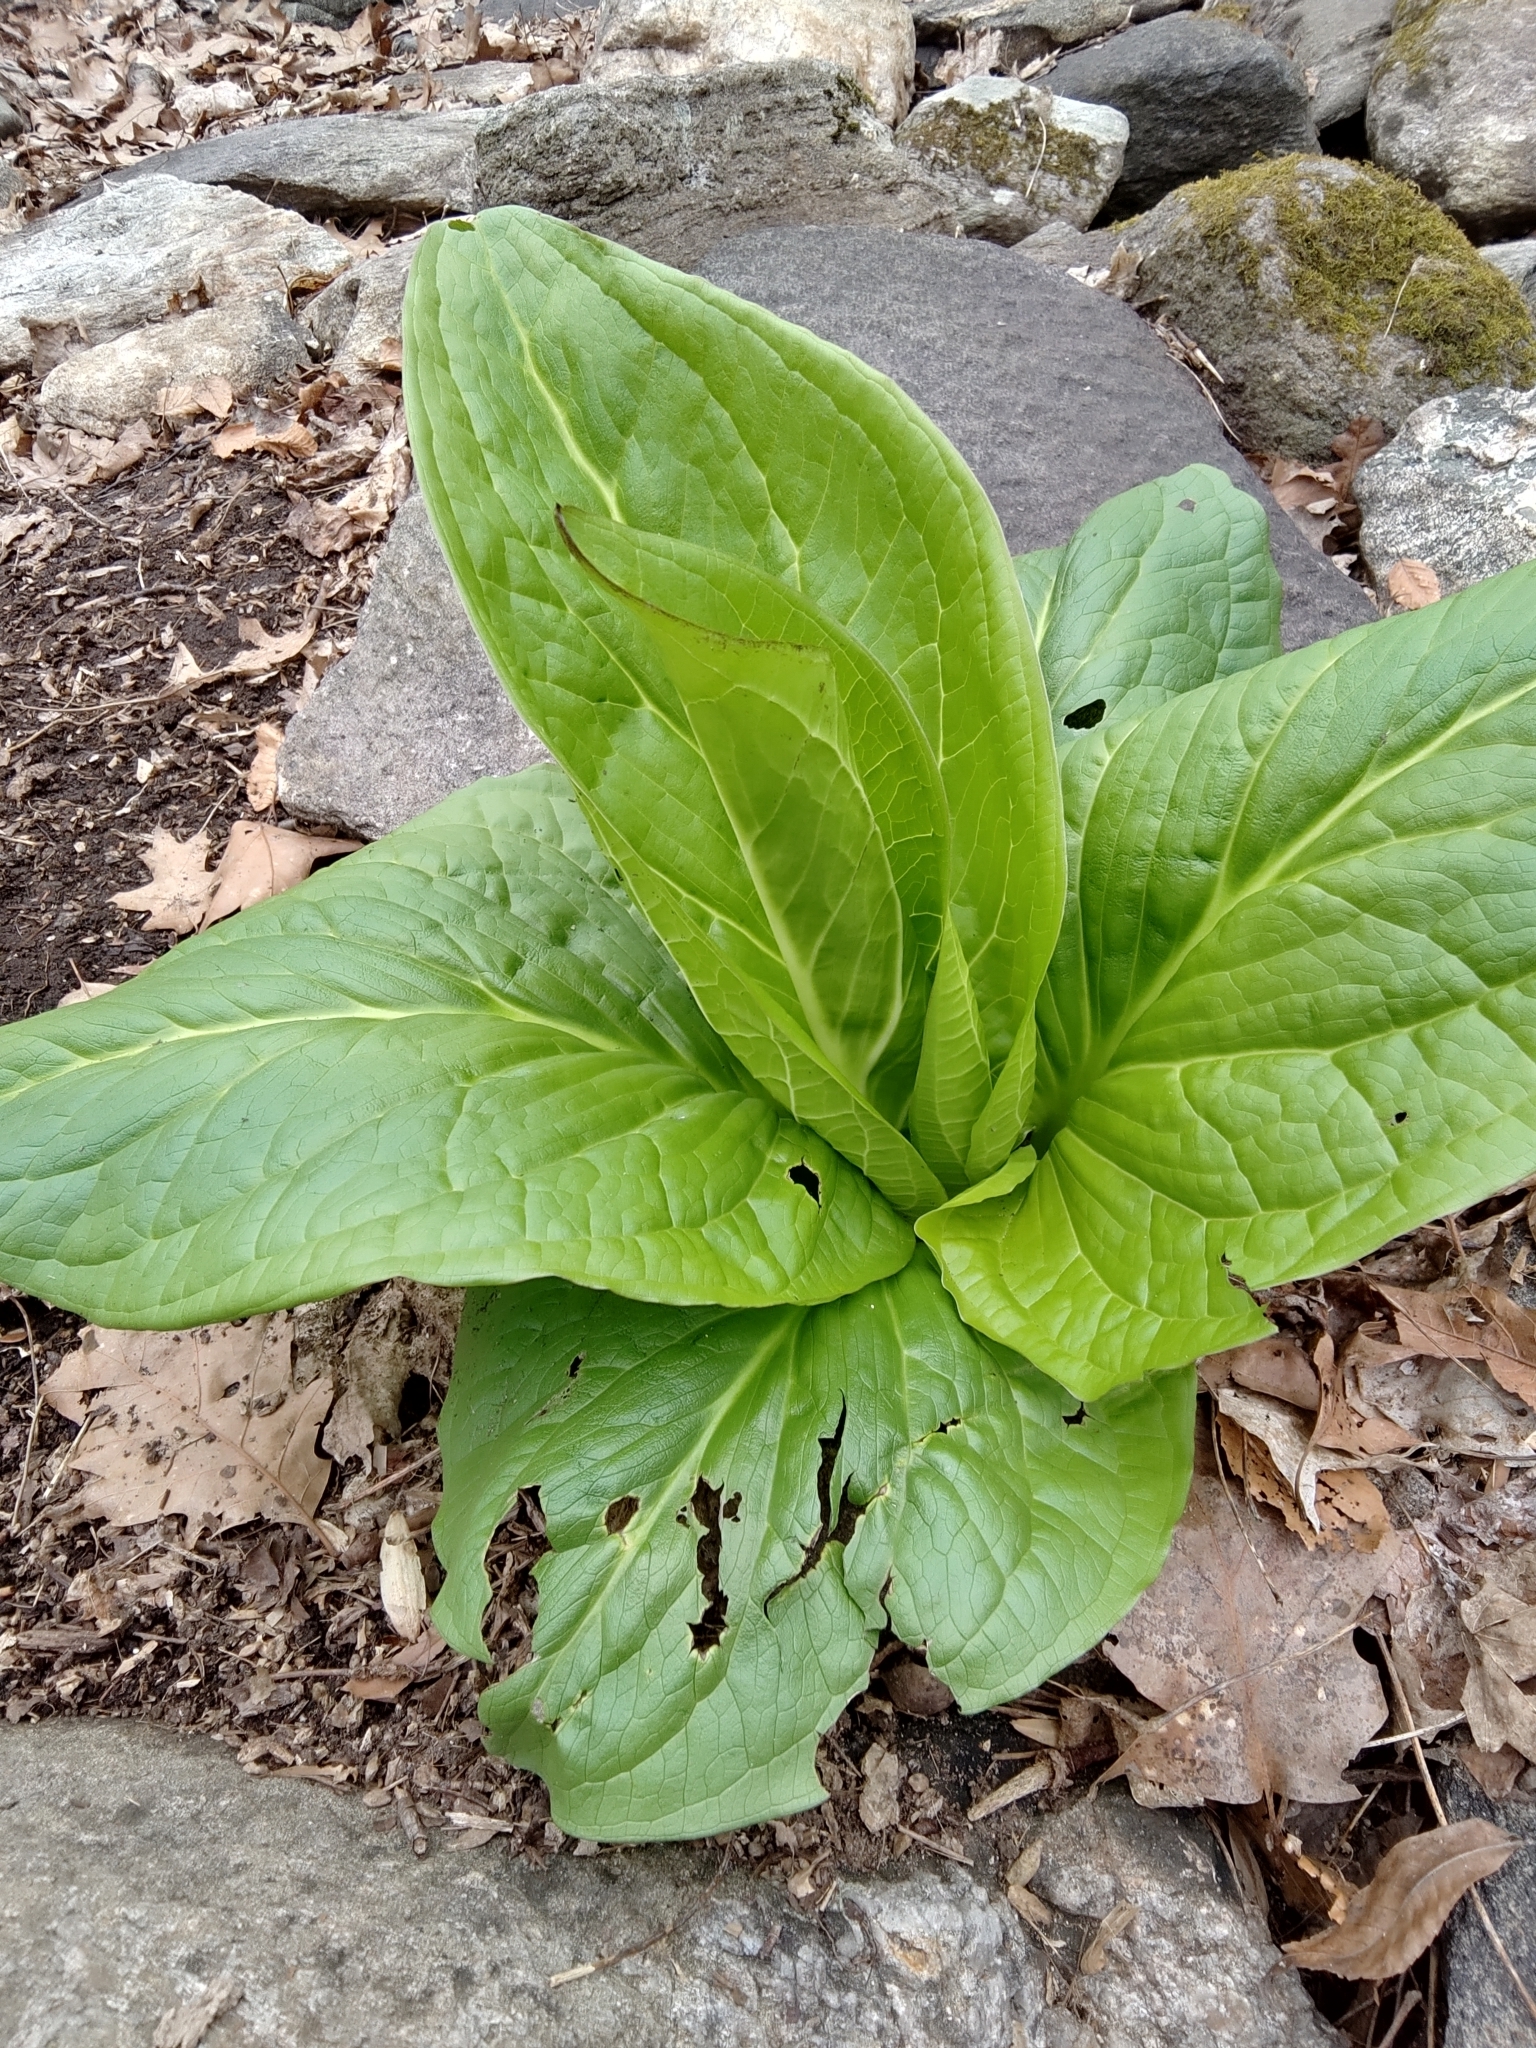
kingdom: Plantae
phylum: Tracheophyta
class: Liliopsida
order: Alismatales
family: Araceae
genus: Symplocarpus
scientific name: Symplocarpus foetidus
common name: Eastern skunk cabbage
